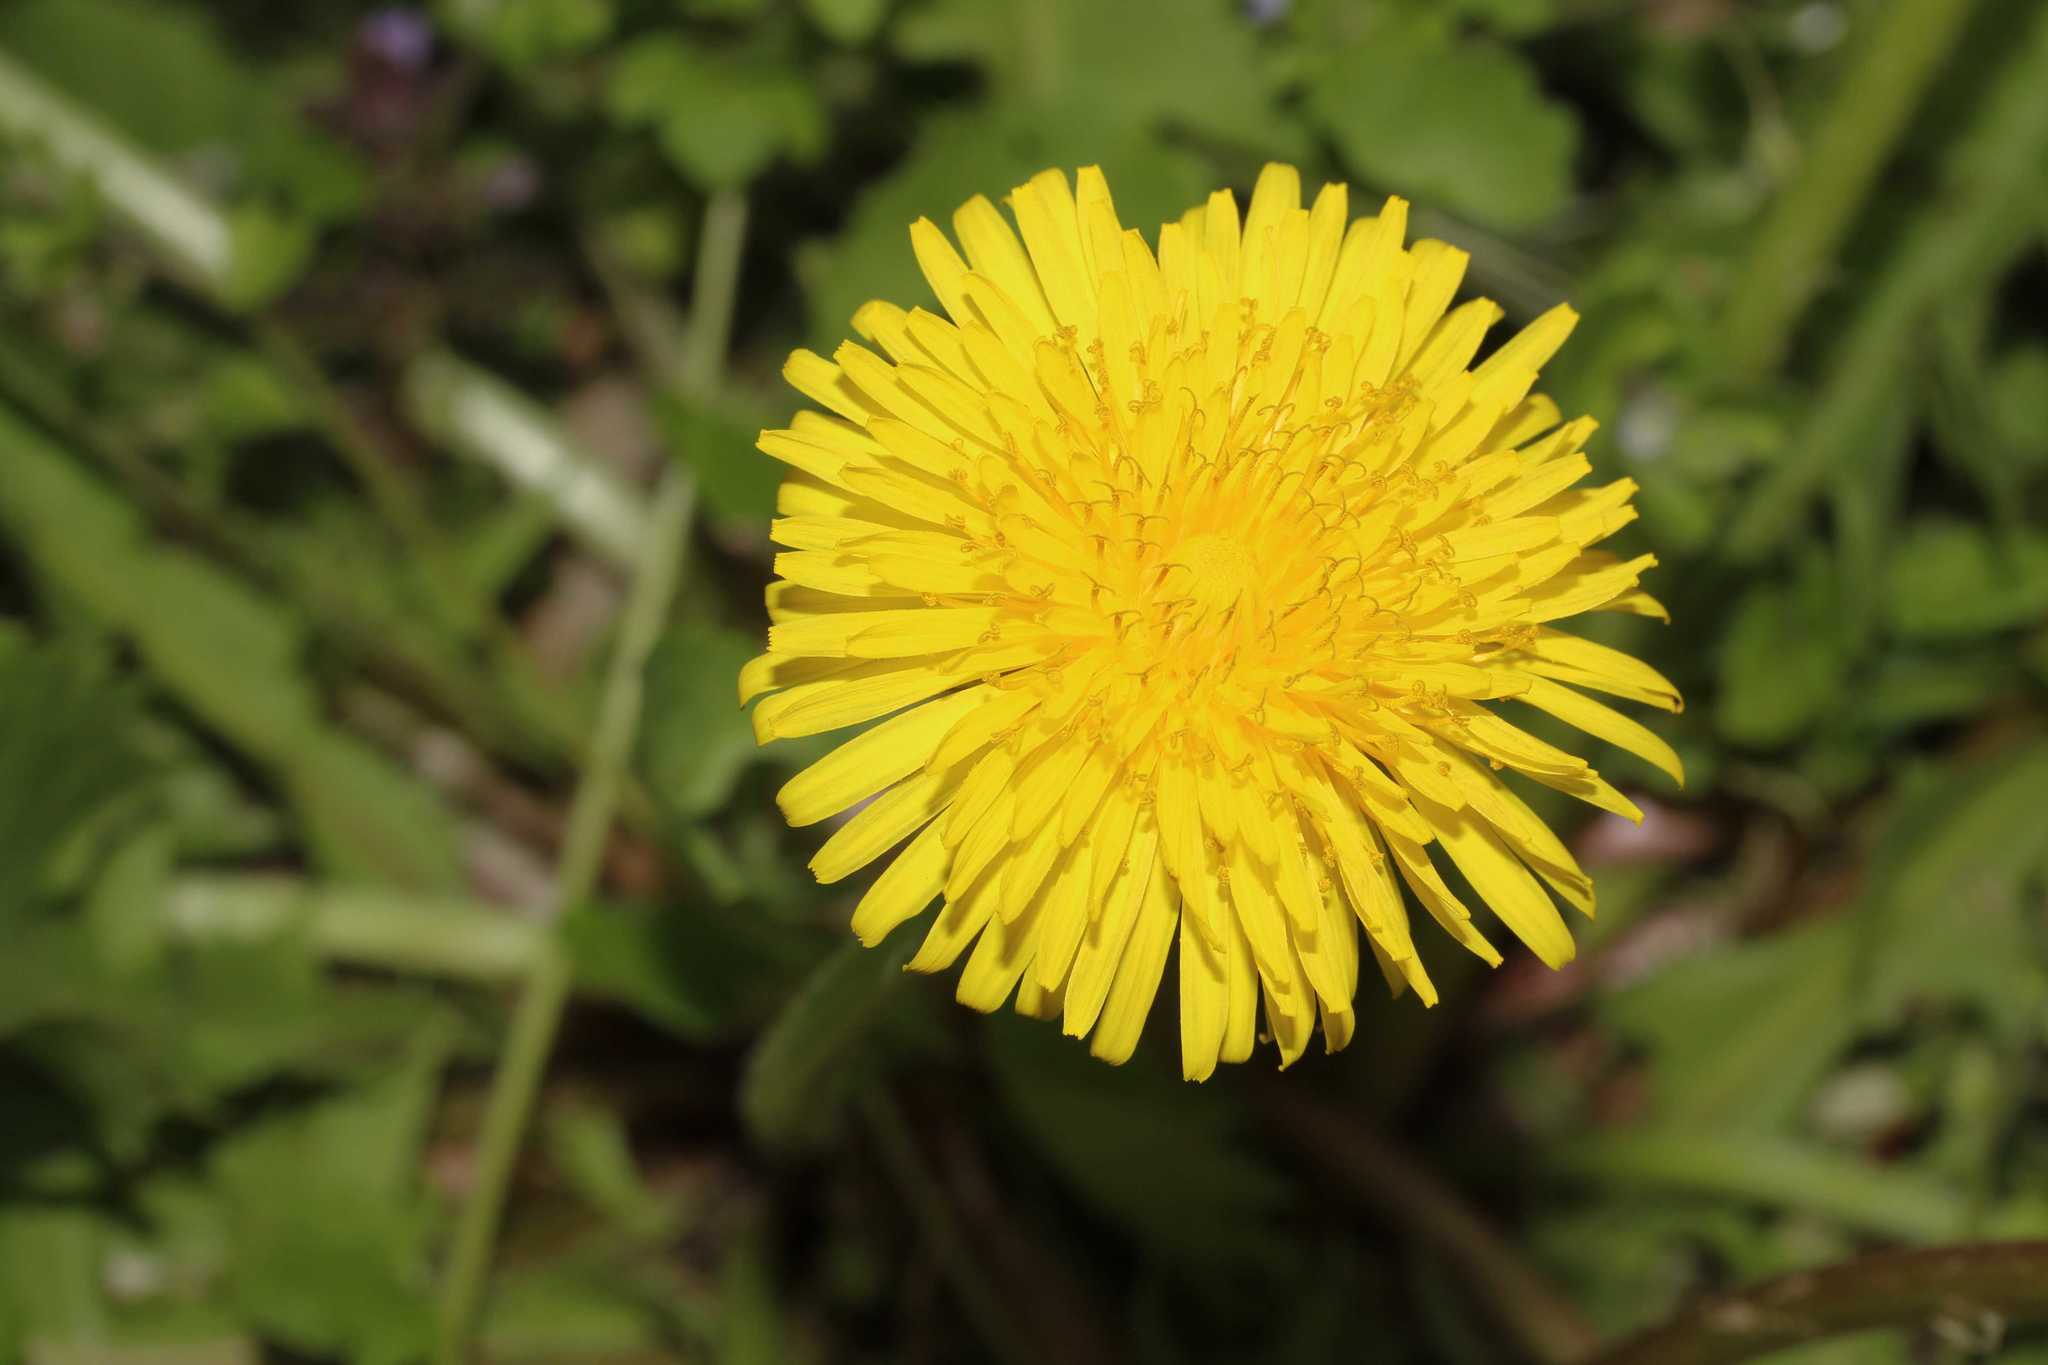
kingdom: Plantae
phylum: Tracheophyta
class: Magnoliopsida
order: Asterales
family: Asteraceae
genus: Taraxacum
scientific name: Taraxacum
